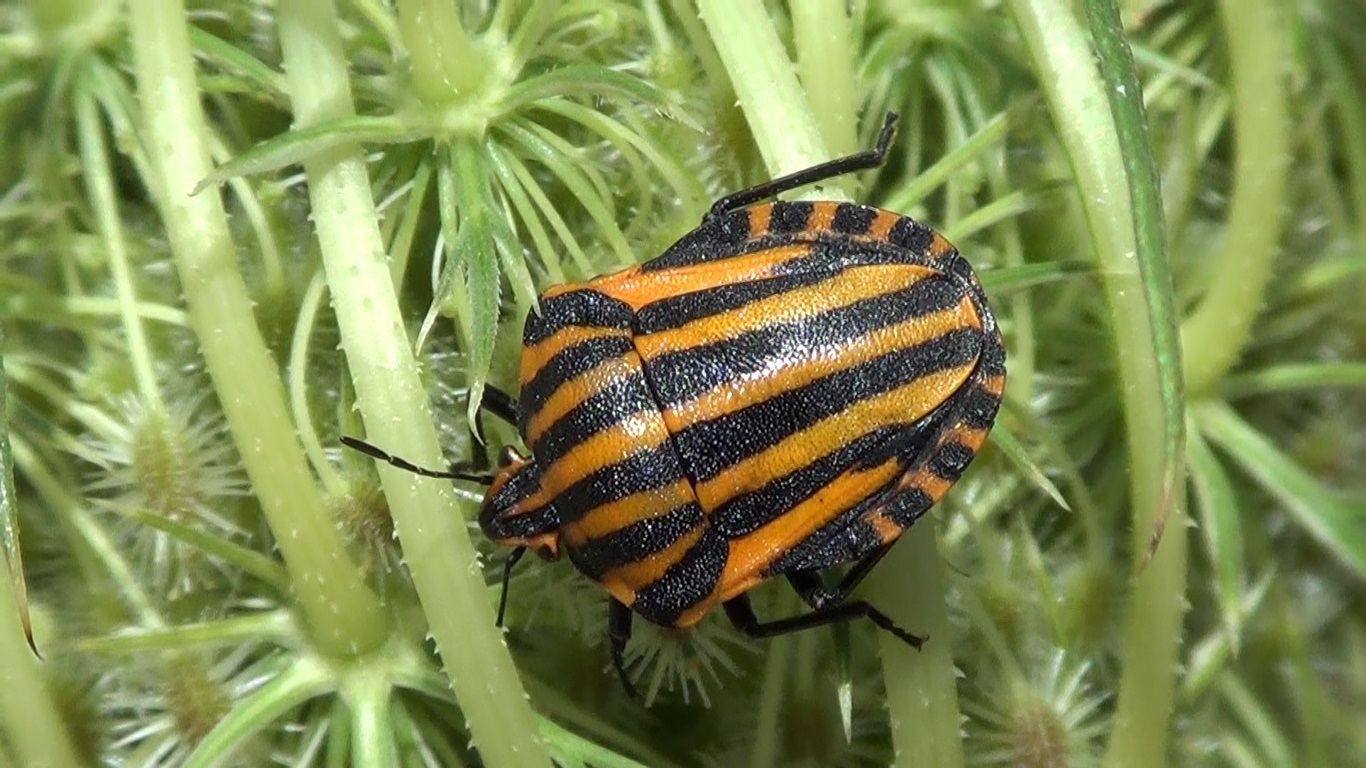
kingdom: Animalia
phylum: Arthropoda
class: Insecta
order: Hemiptera
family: Pentatomidae
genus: Graphosoma
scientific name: Graphosoma lineatum
